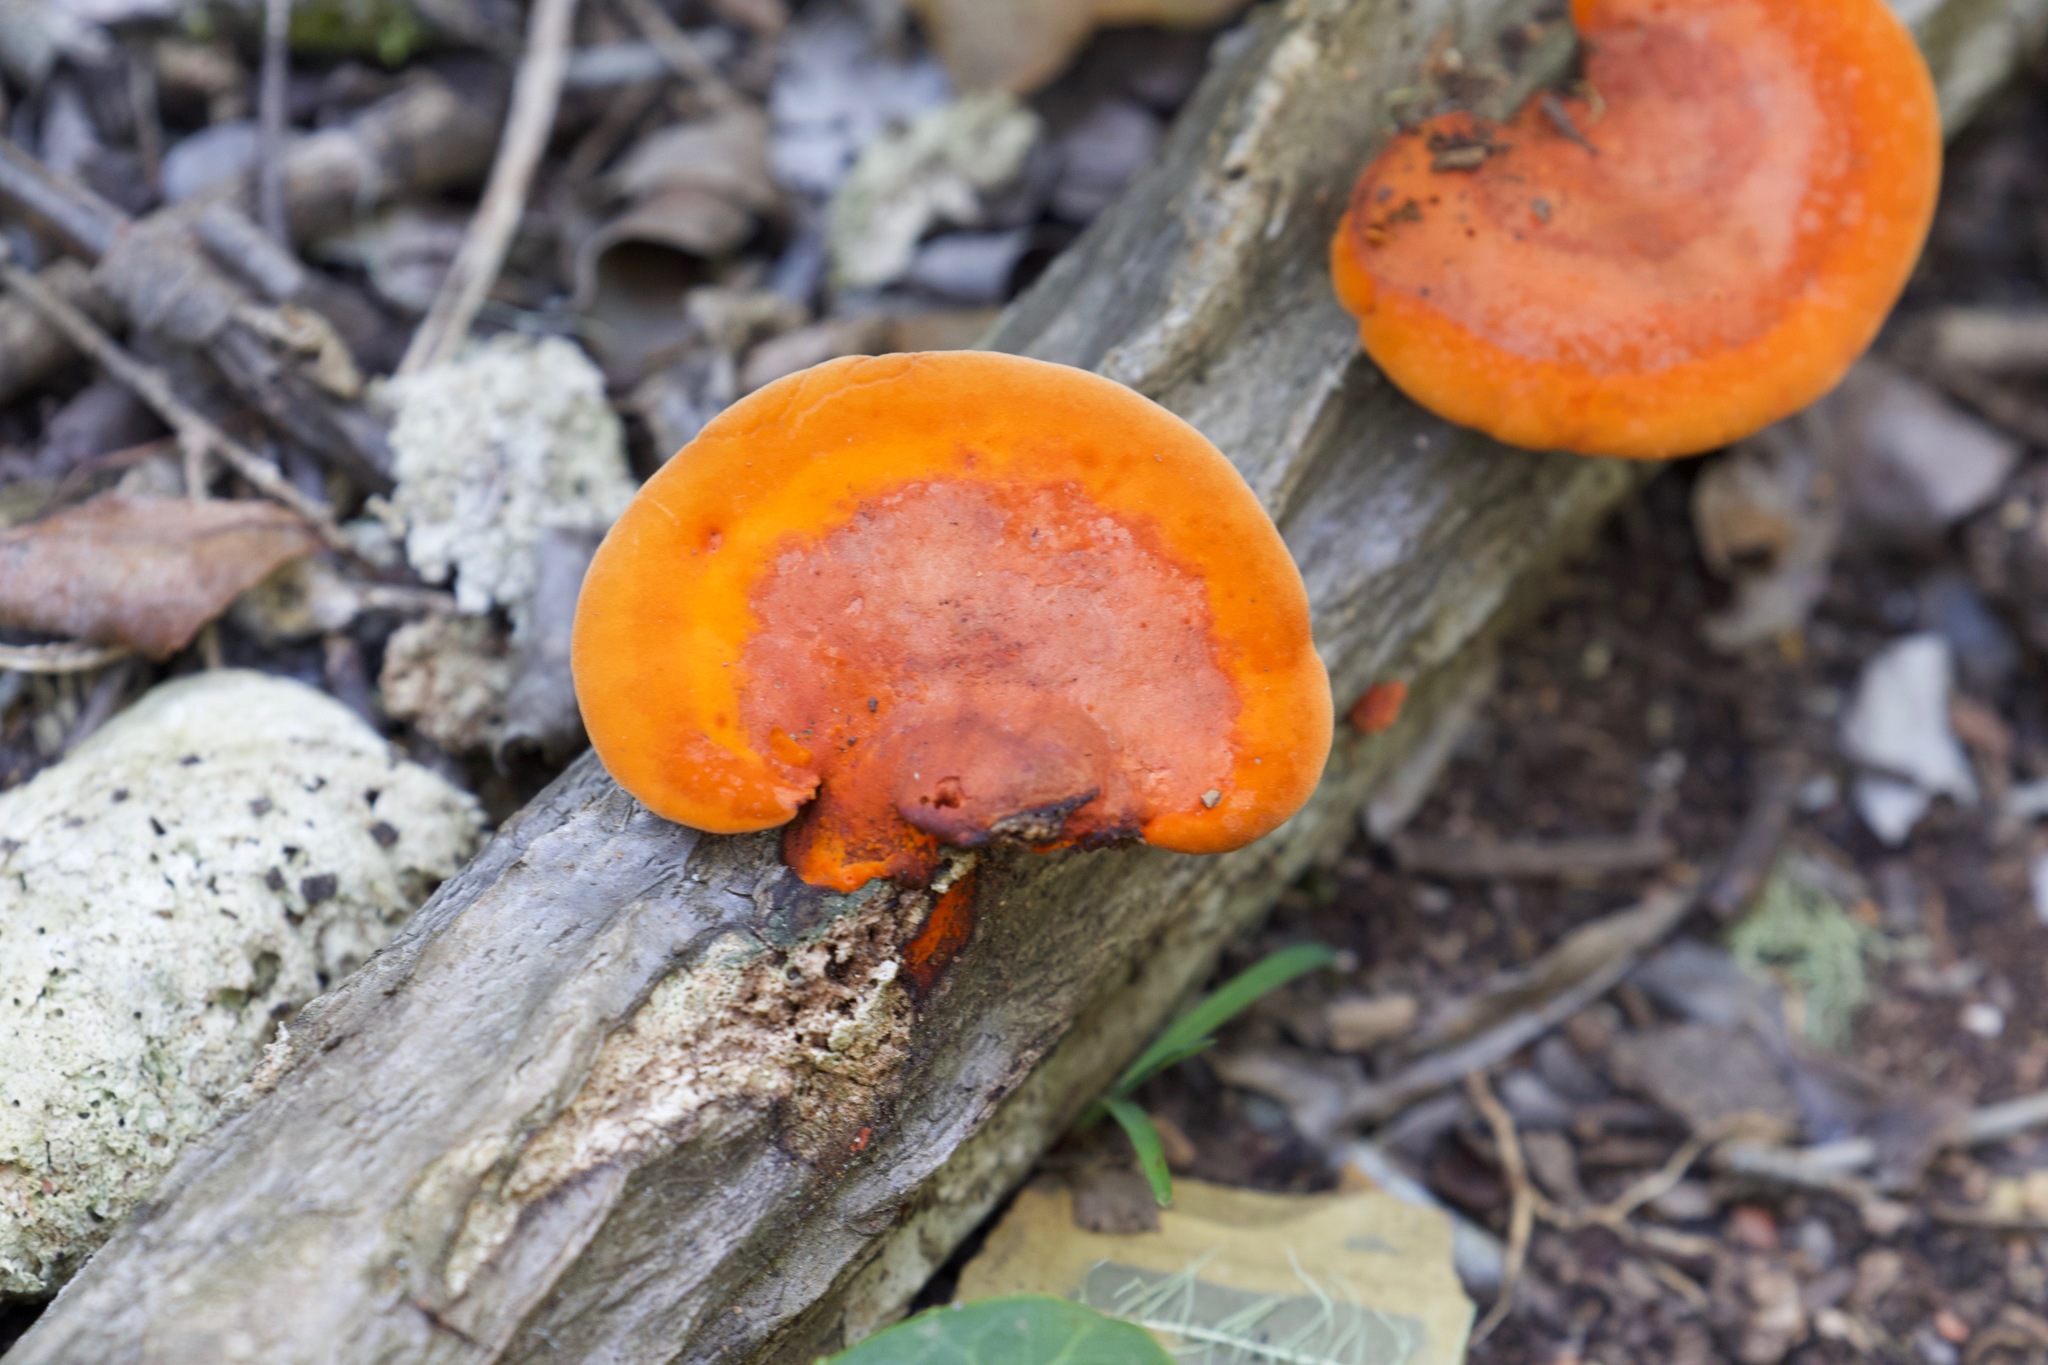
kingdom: Fungi
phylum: Basidiomycota
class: Agaricomycetes
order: Polyporales
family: Polyporaceae
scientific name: Polyporaceae
